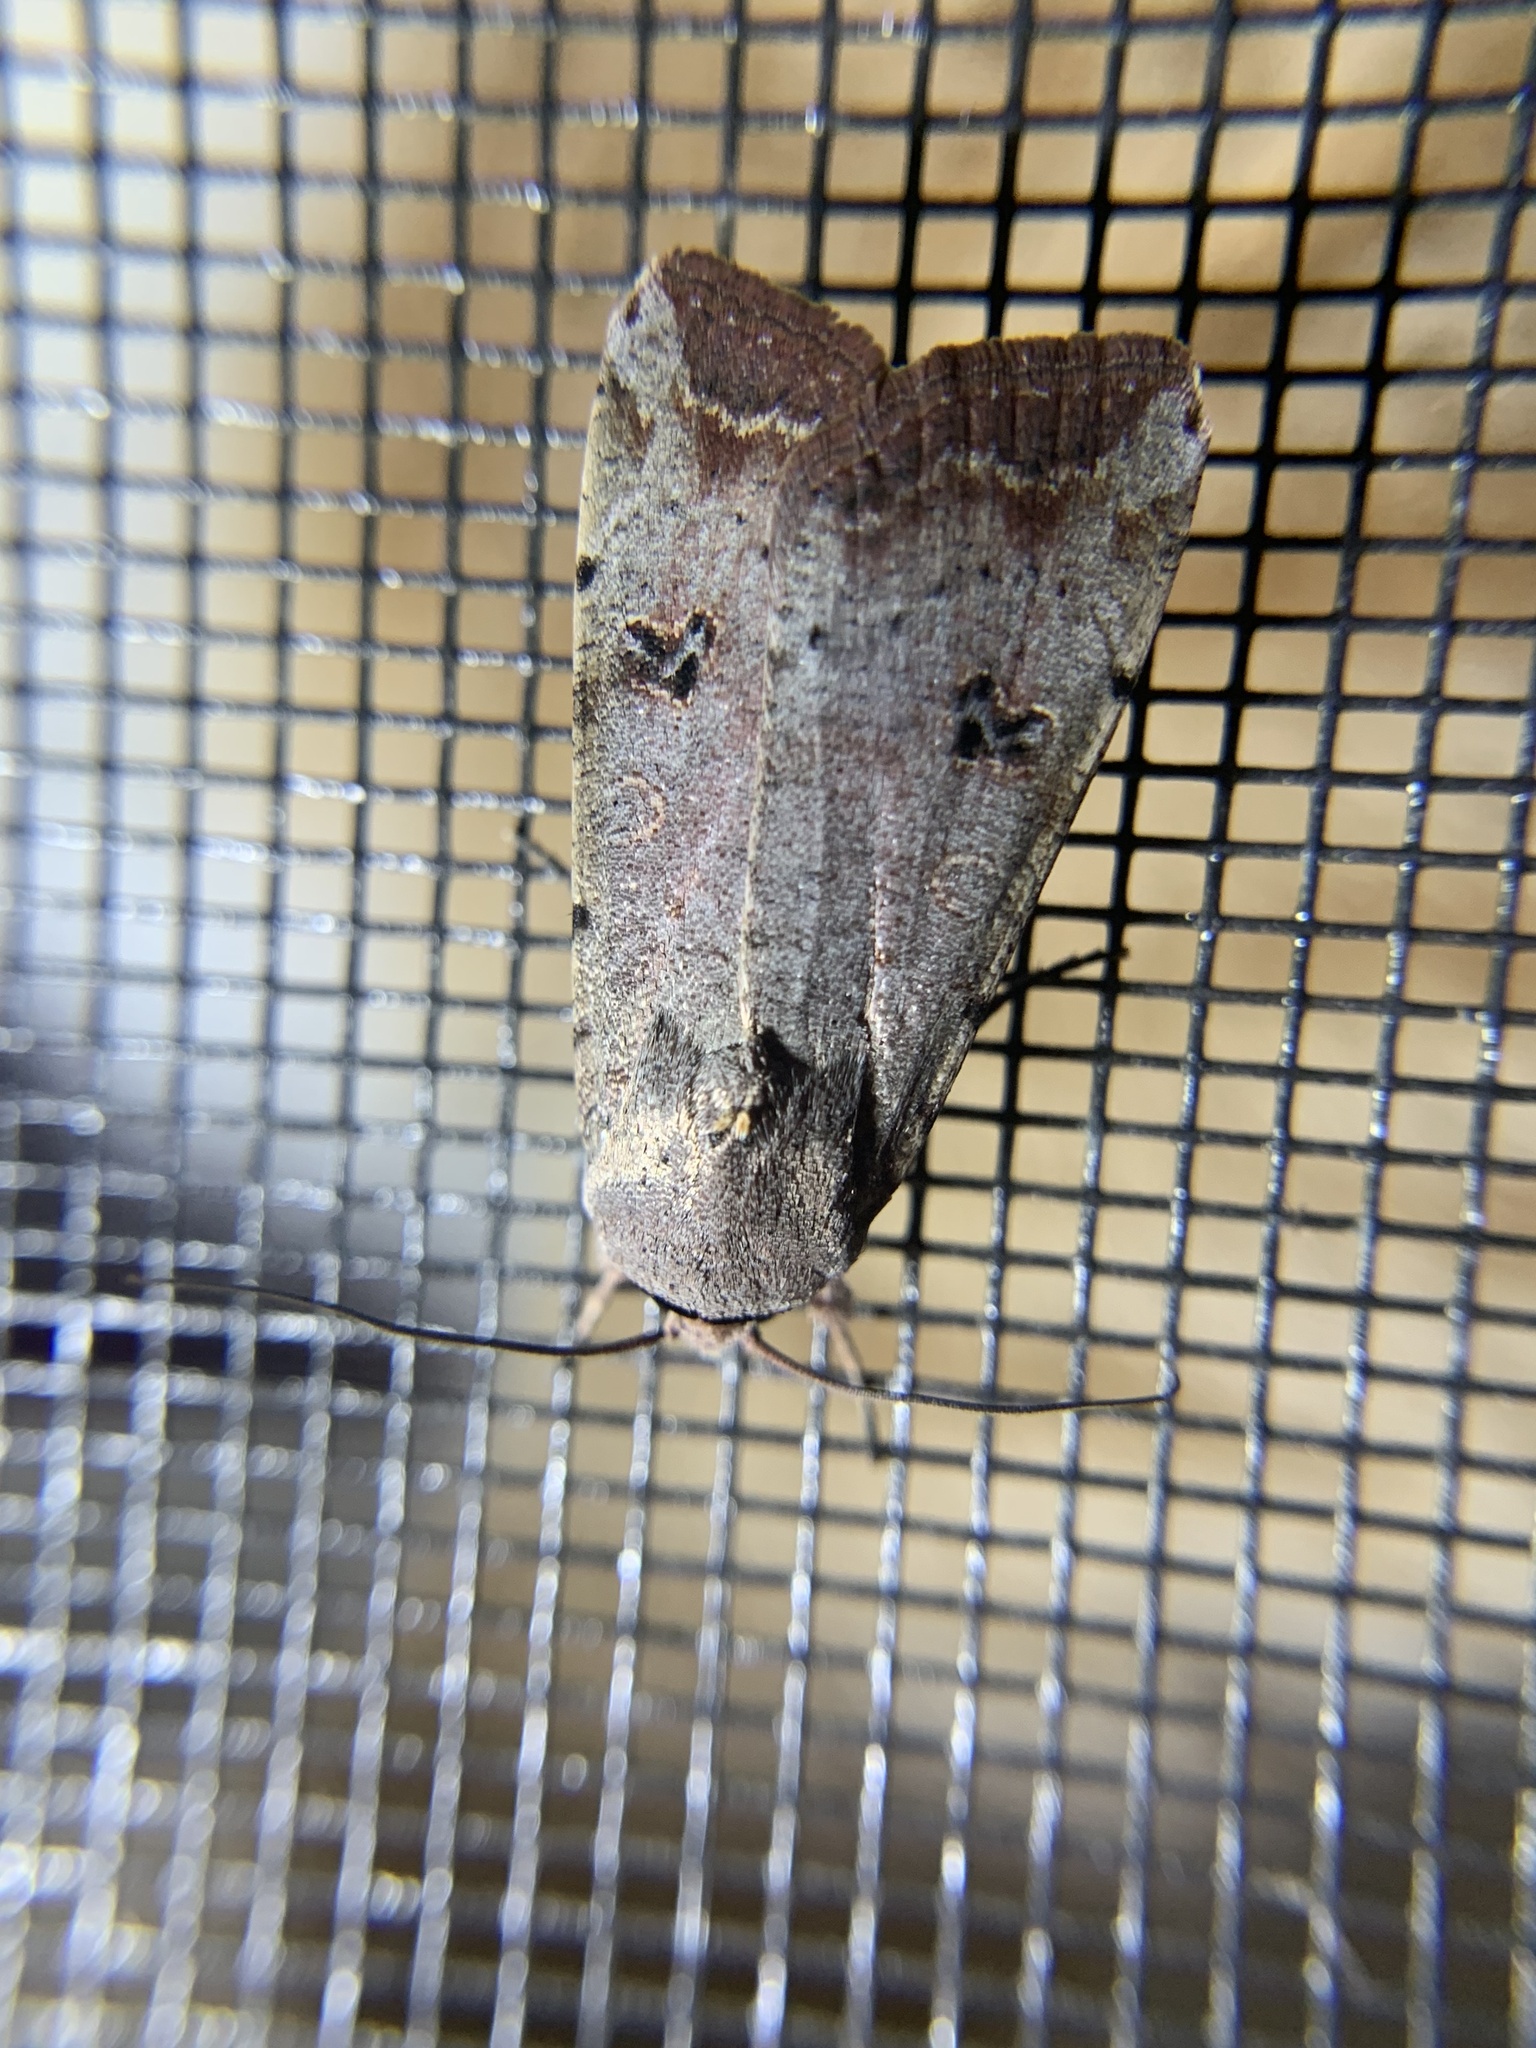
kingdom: Animalia
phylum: Arthropoda
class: Insecta
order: Lepidoptera
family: Noctuidae
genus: Anicla
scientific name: Anicla infecta
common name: Green cutworm
